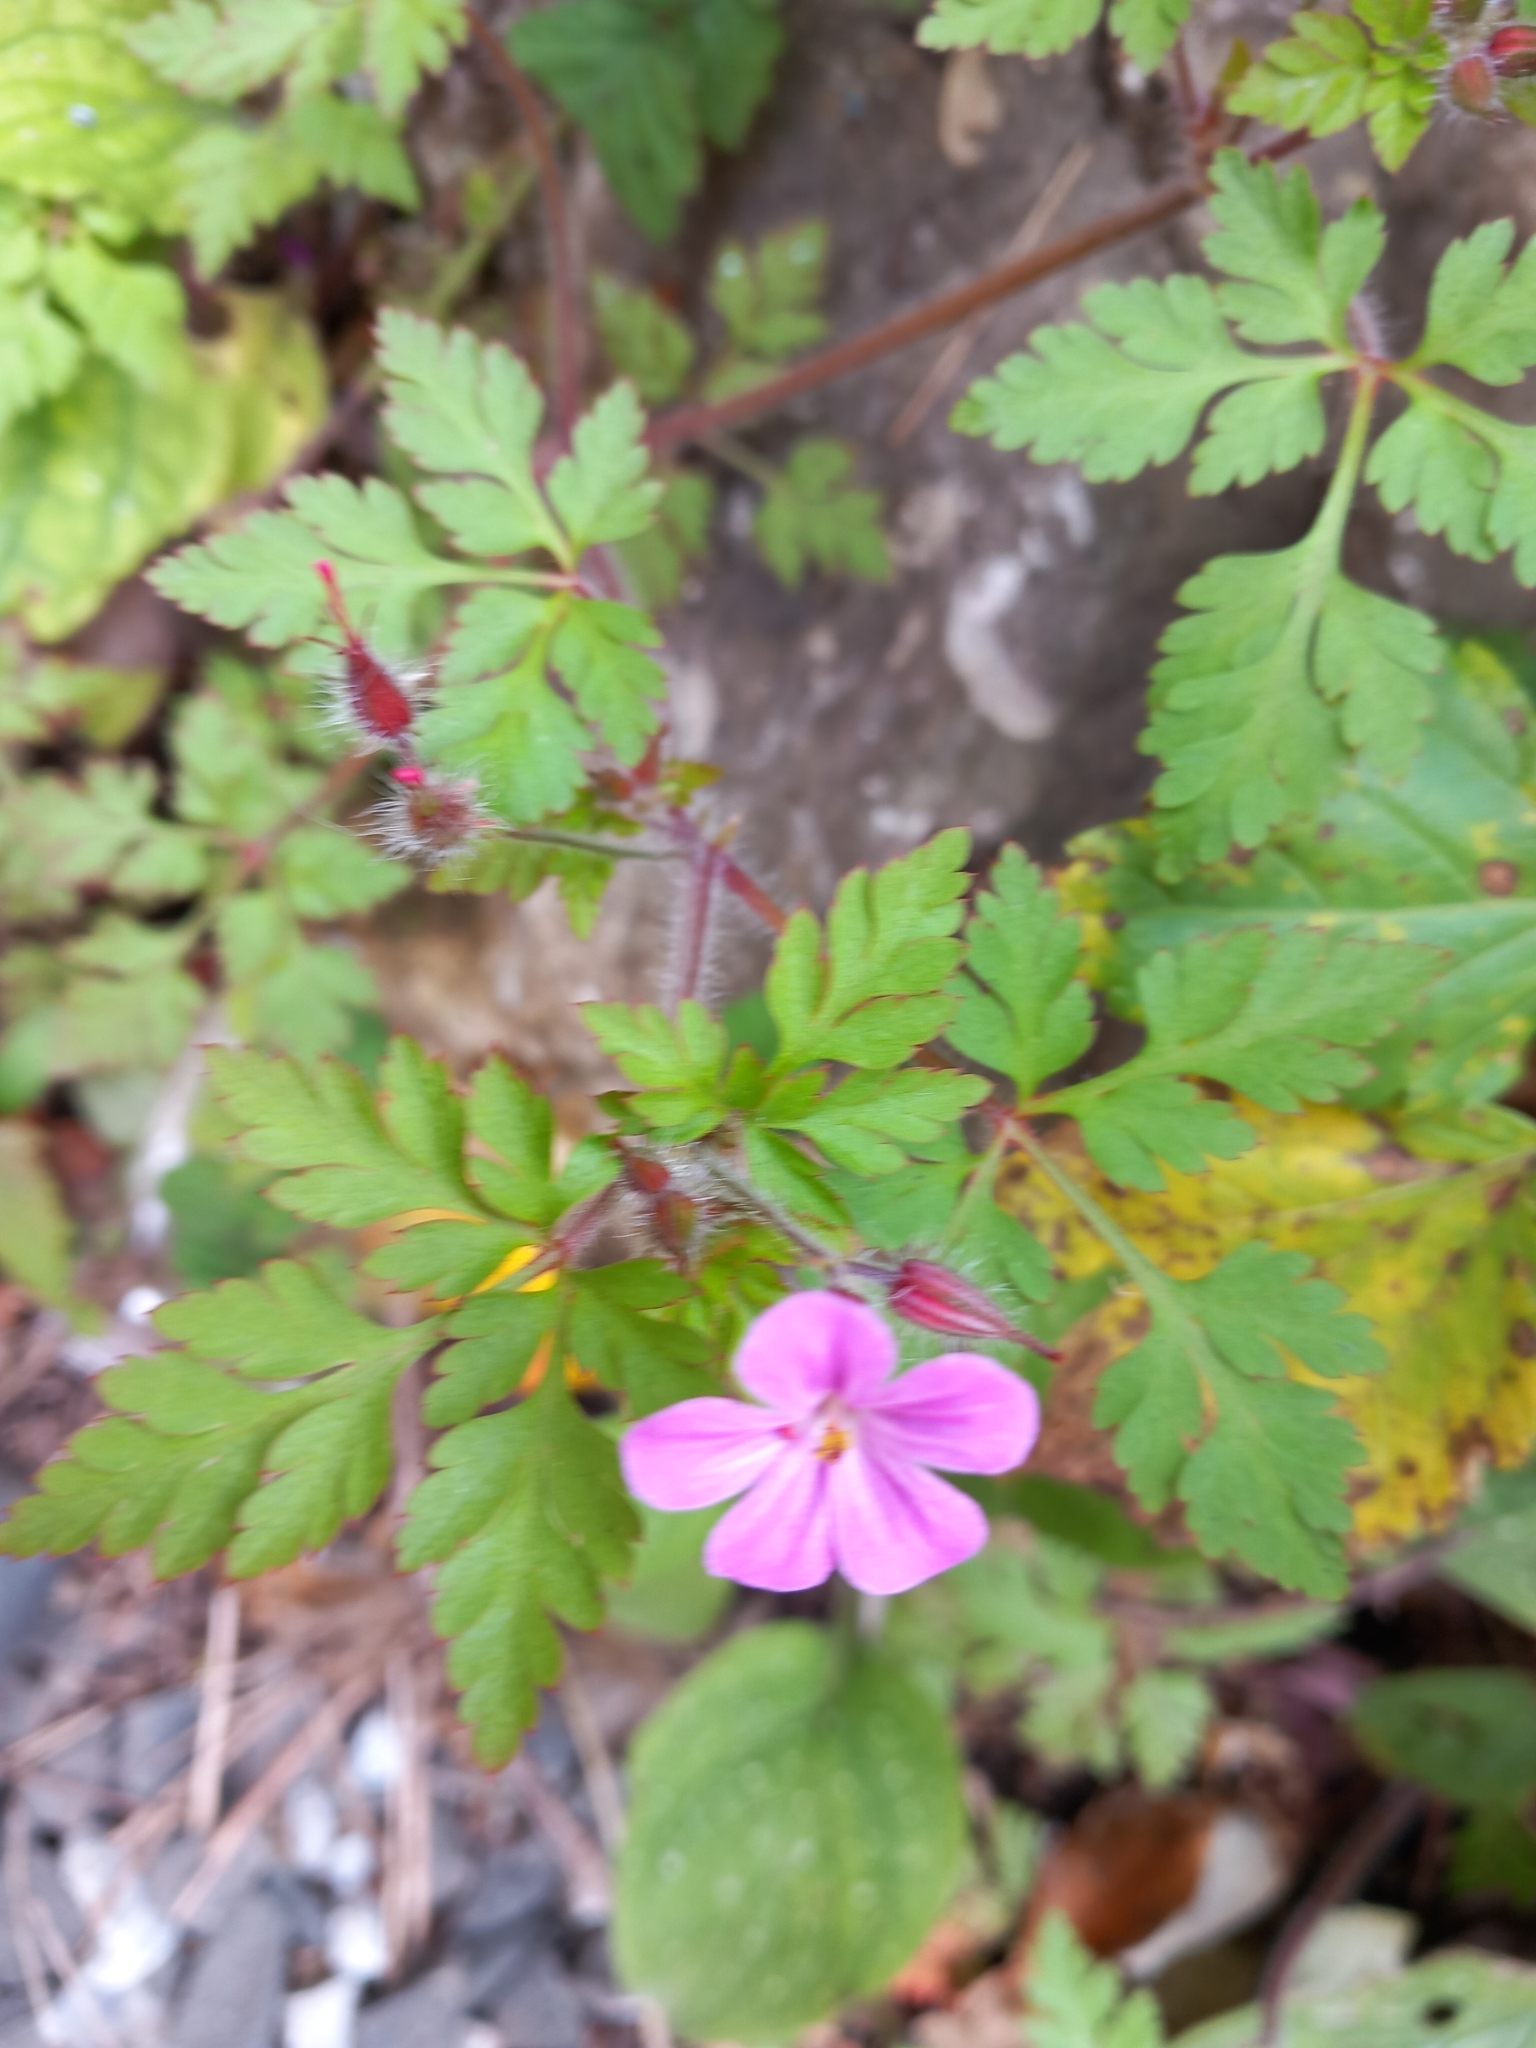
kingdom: Plantae
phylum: Tracheophyta
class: Magnoliopsida
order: Geraniales
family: Geraniaceae
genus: Geranium
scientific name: Geranium robertianum
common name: Herb-robert
